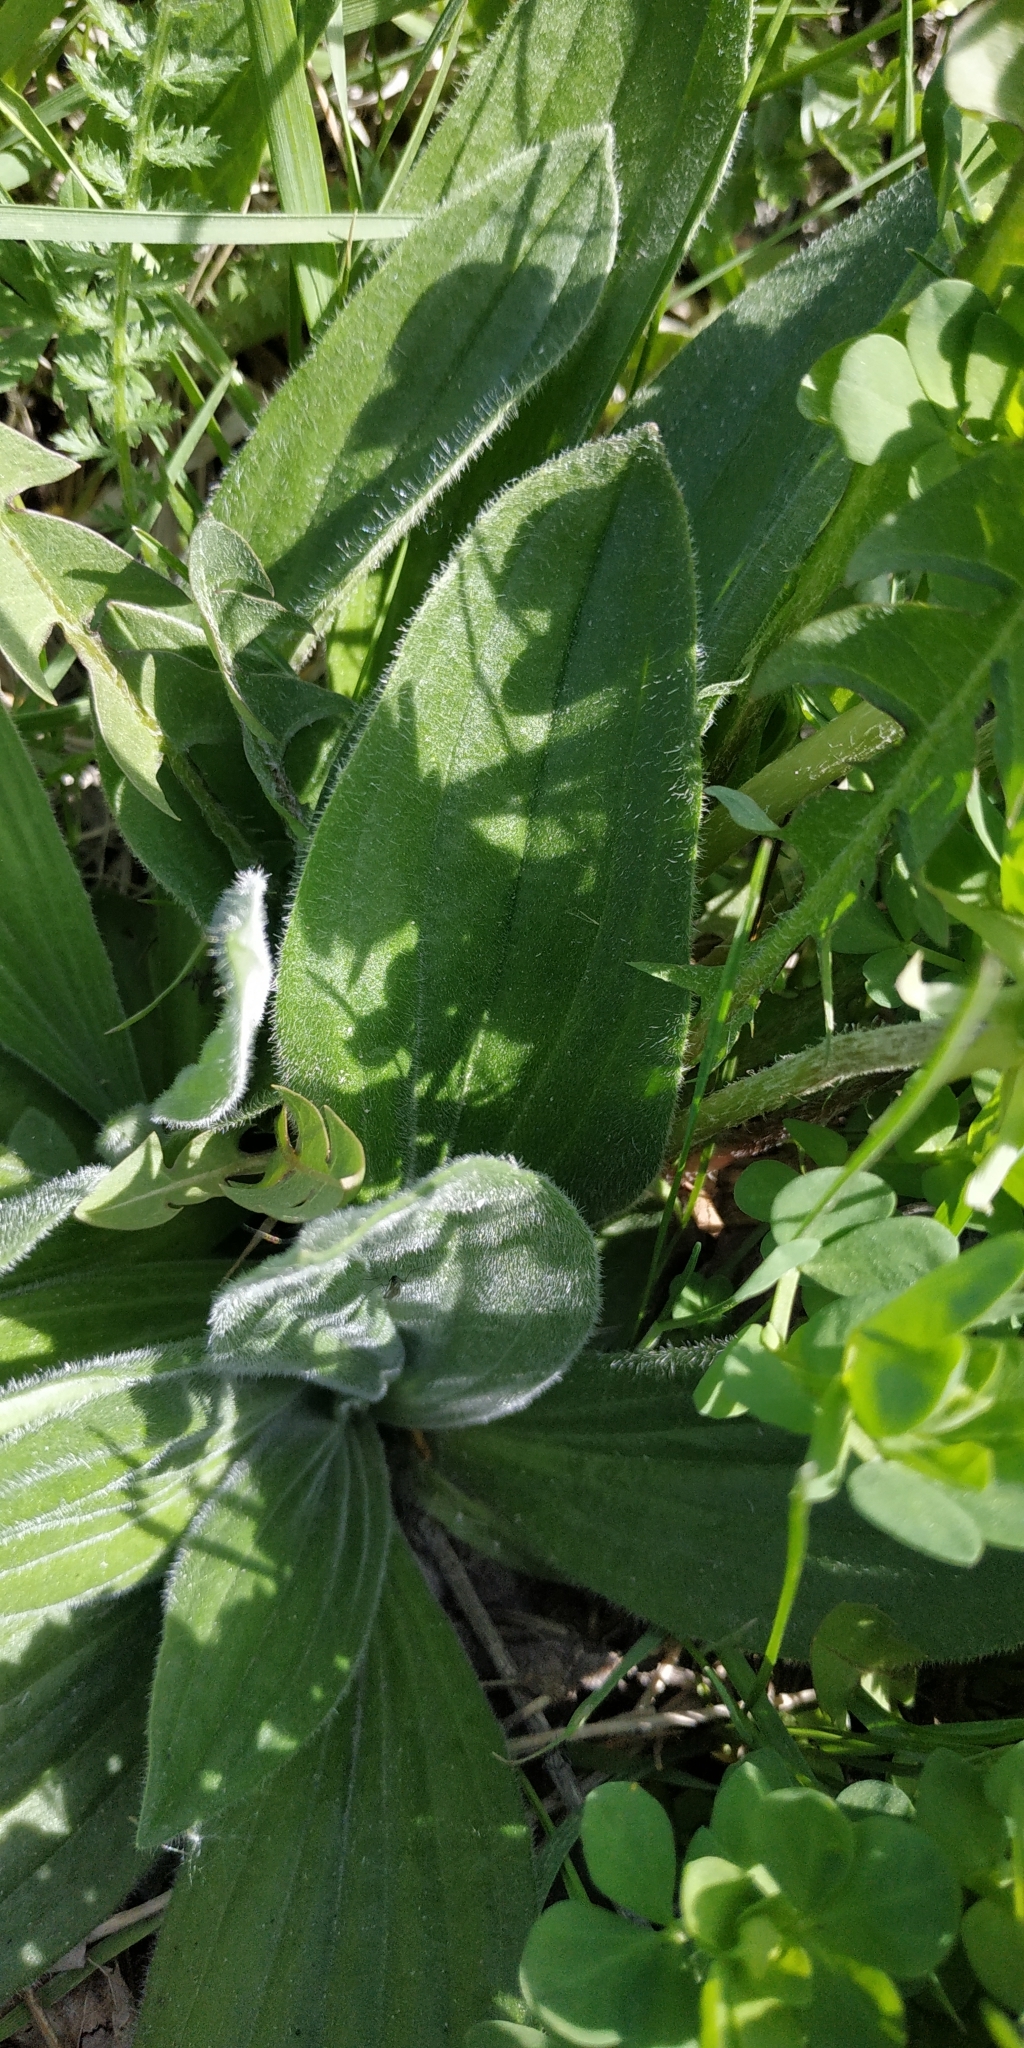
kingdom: Plantae
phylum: Tracheophyta
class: Magnoliopsida
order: Lamiales
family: Plantaginaceae
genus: Plantago
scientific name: Plantago media
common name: Hoary plantain
